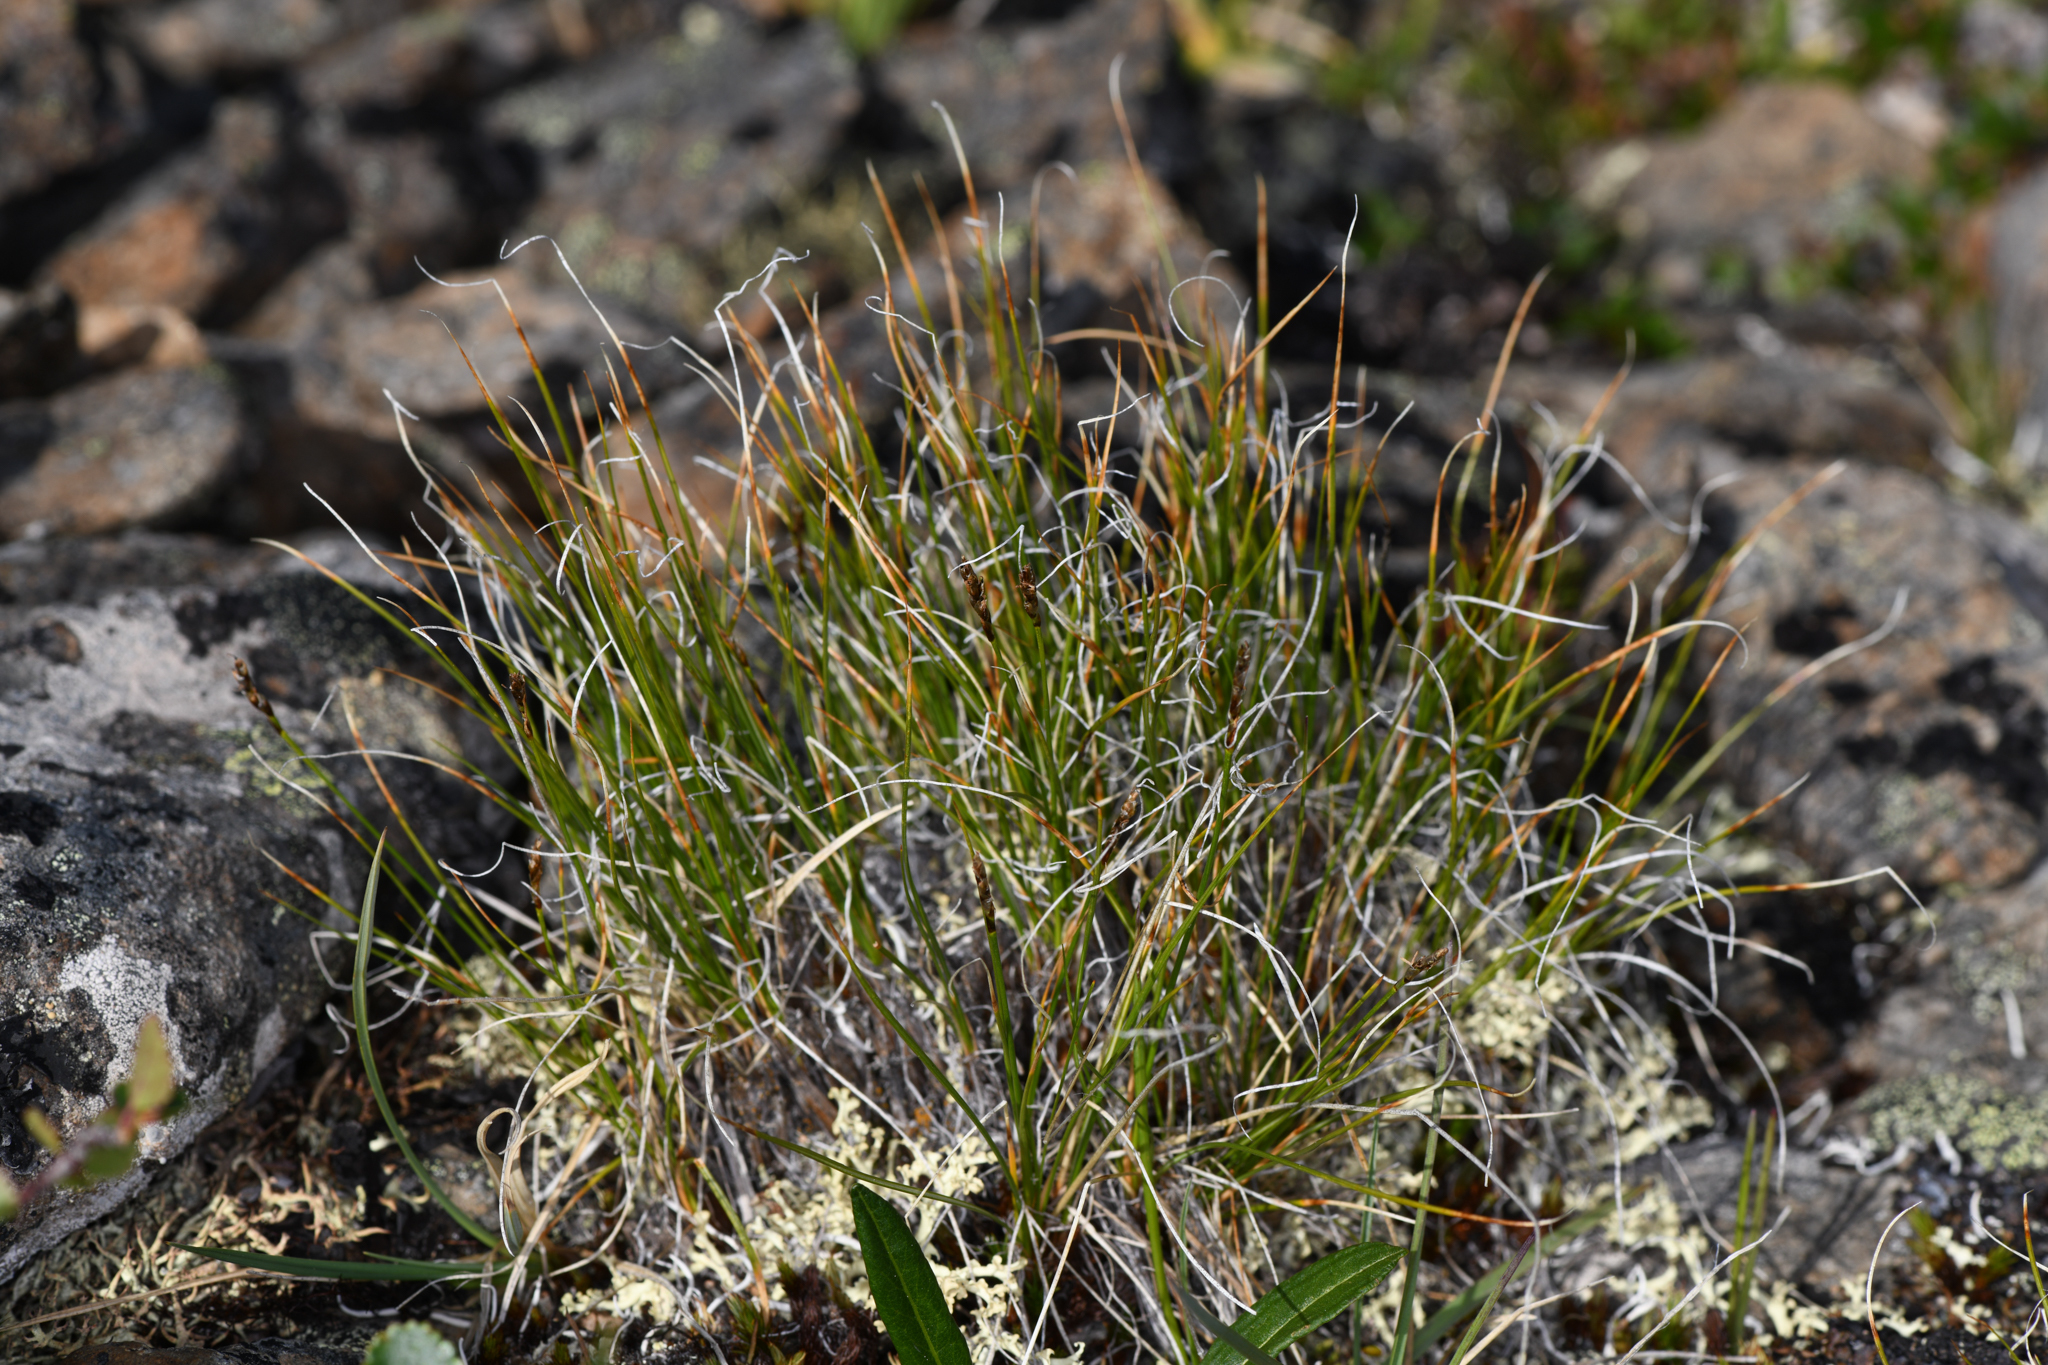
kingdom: Plantae
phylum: Tracheophyta
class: Liliopsida
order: Poales
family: Cyperaceae
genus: Carex
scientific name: Carex myosuroides
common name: Bellard's bog sedge
